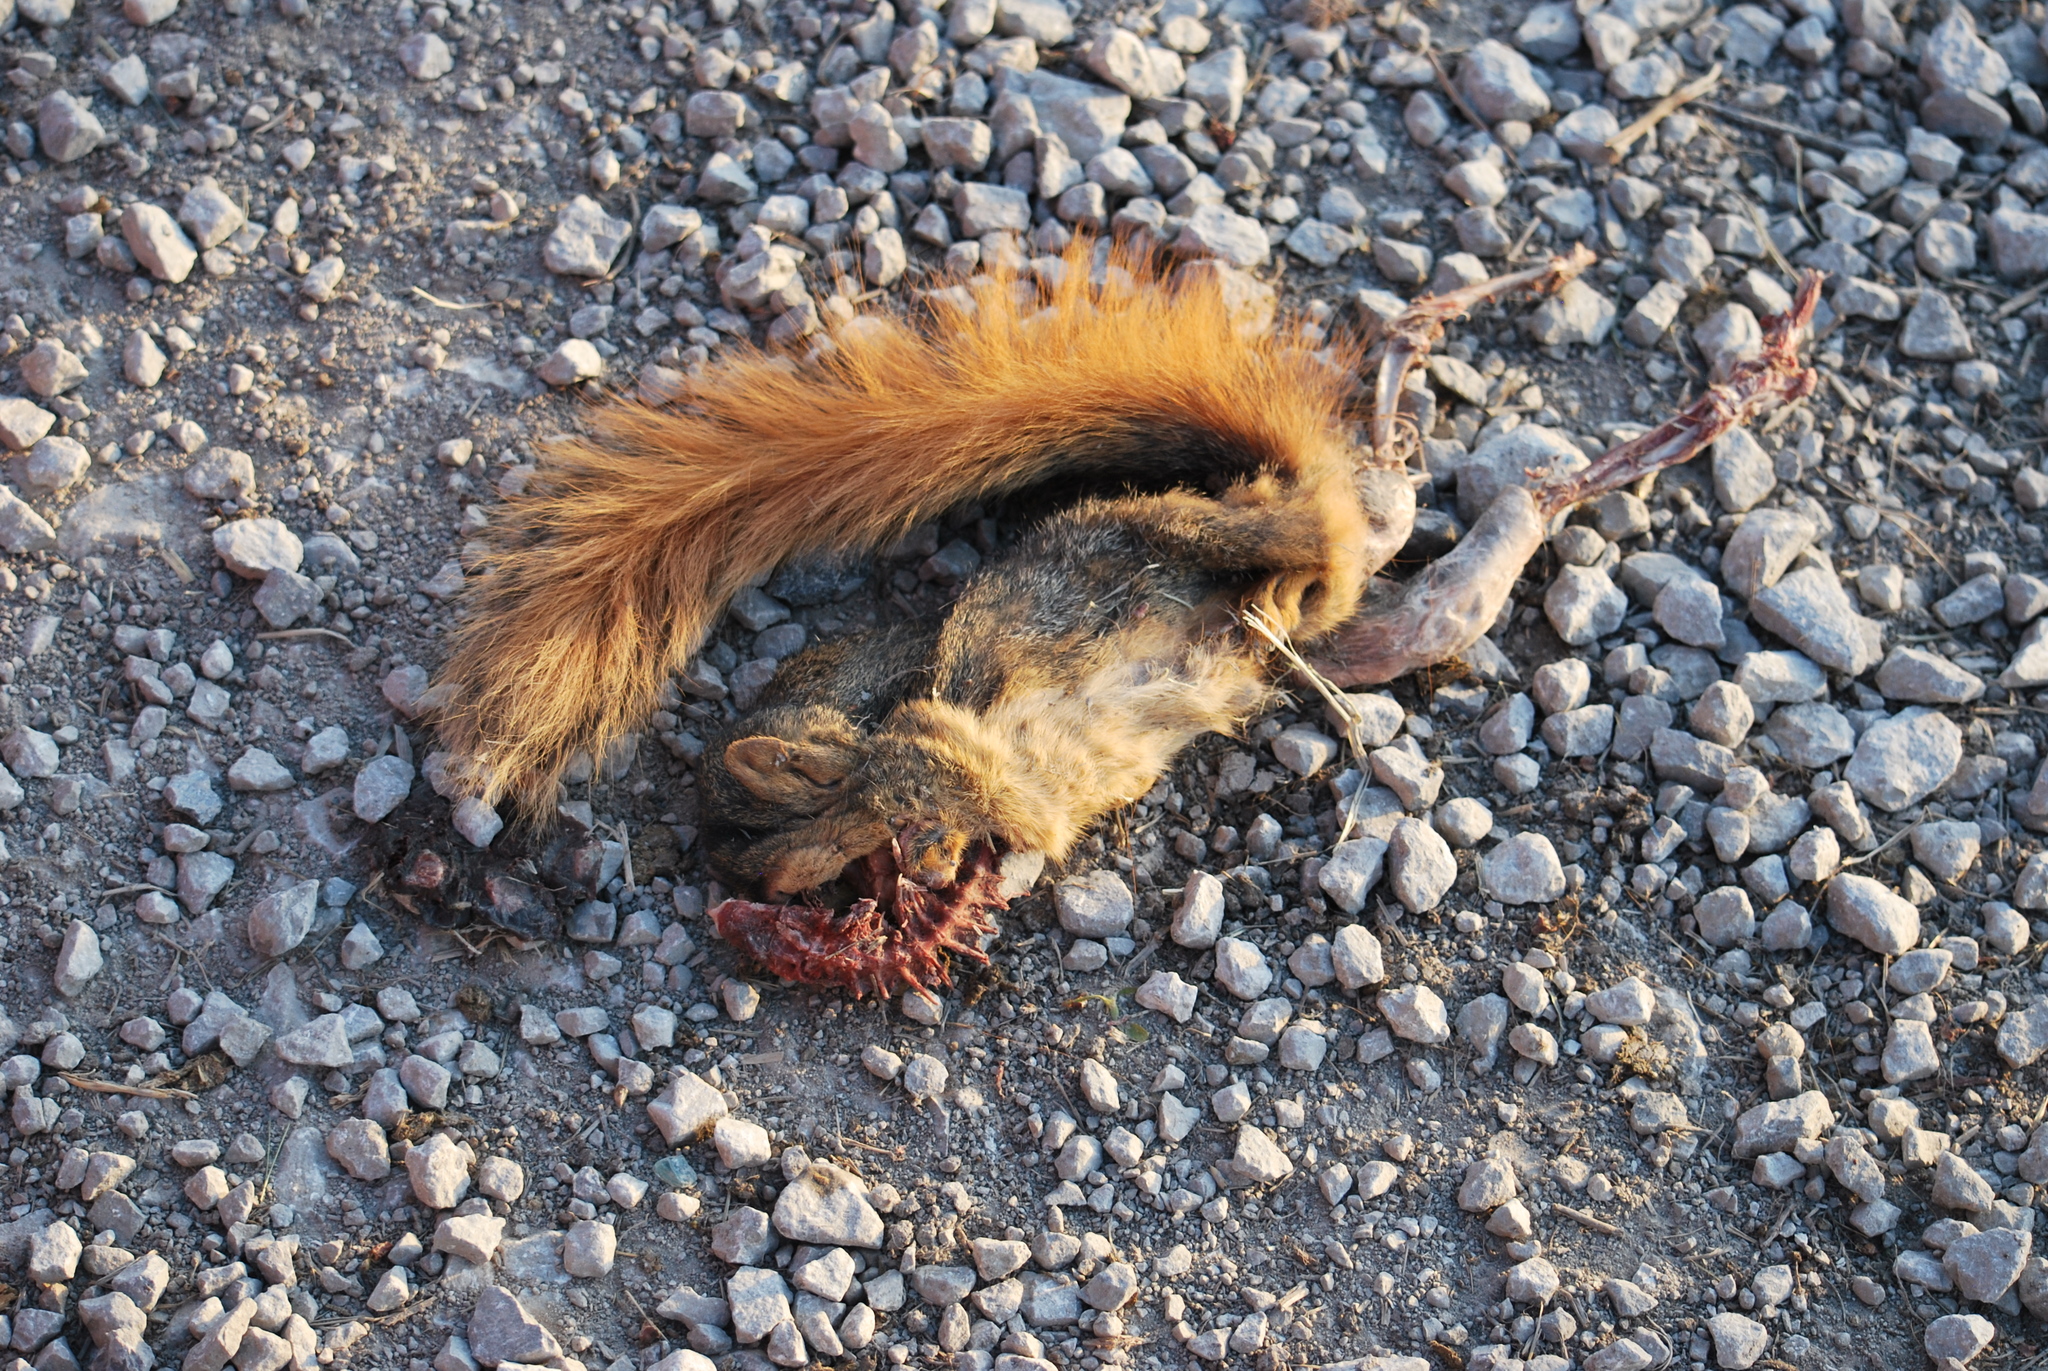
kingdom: Animalia
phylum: Chordata
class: Mammalia
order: Rodentia
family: Sciuridae
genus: Sciurus
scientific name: Sciurus niger
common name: Fox squirrel
